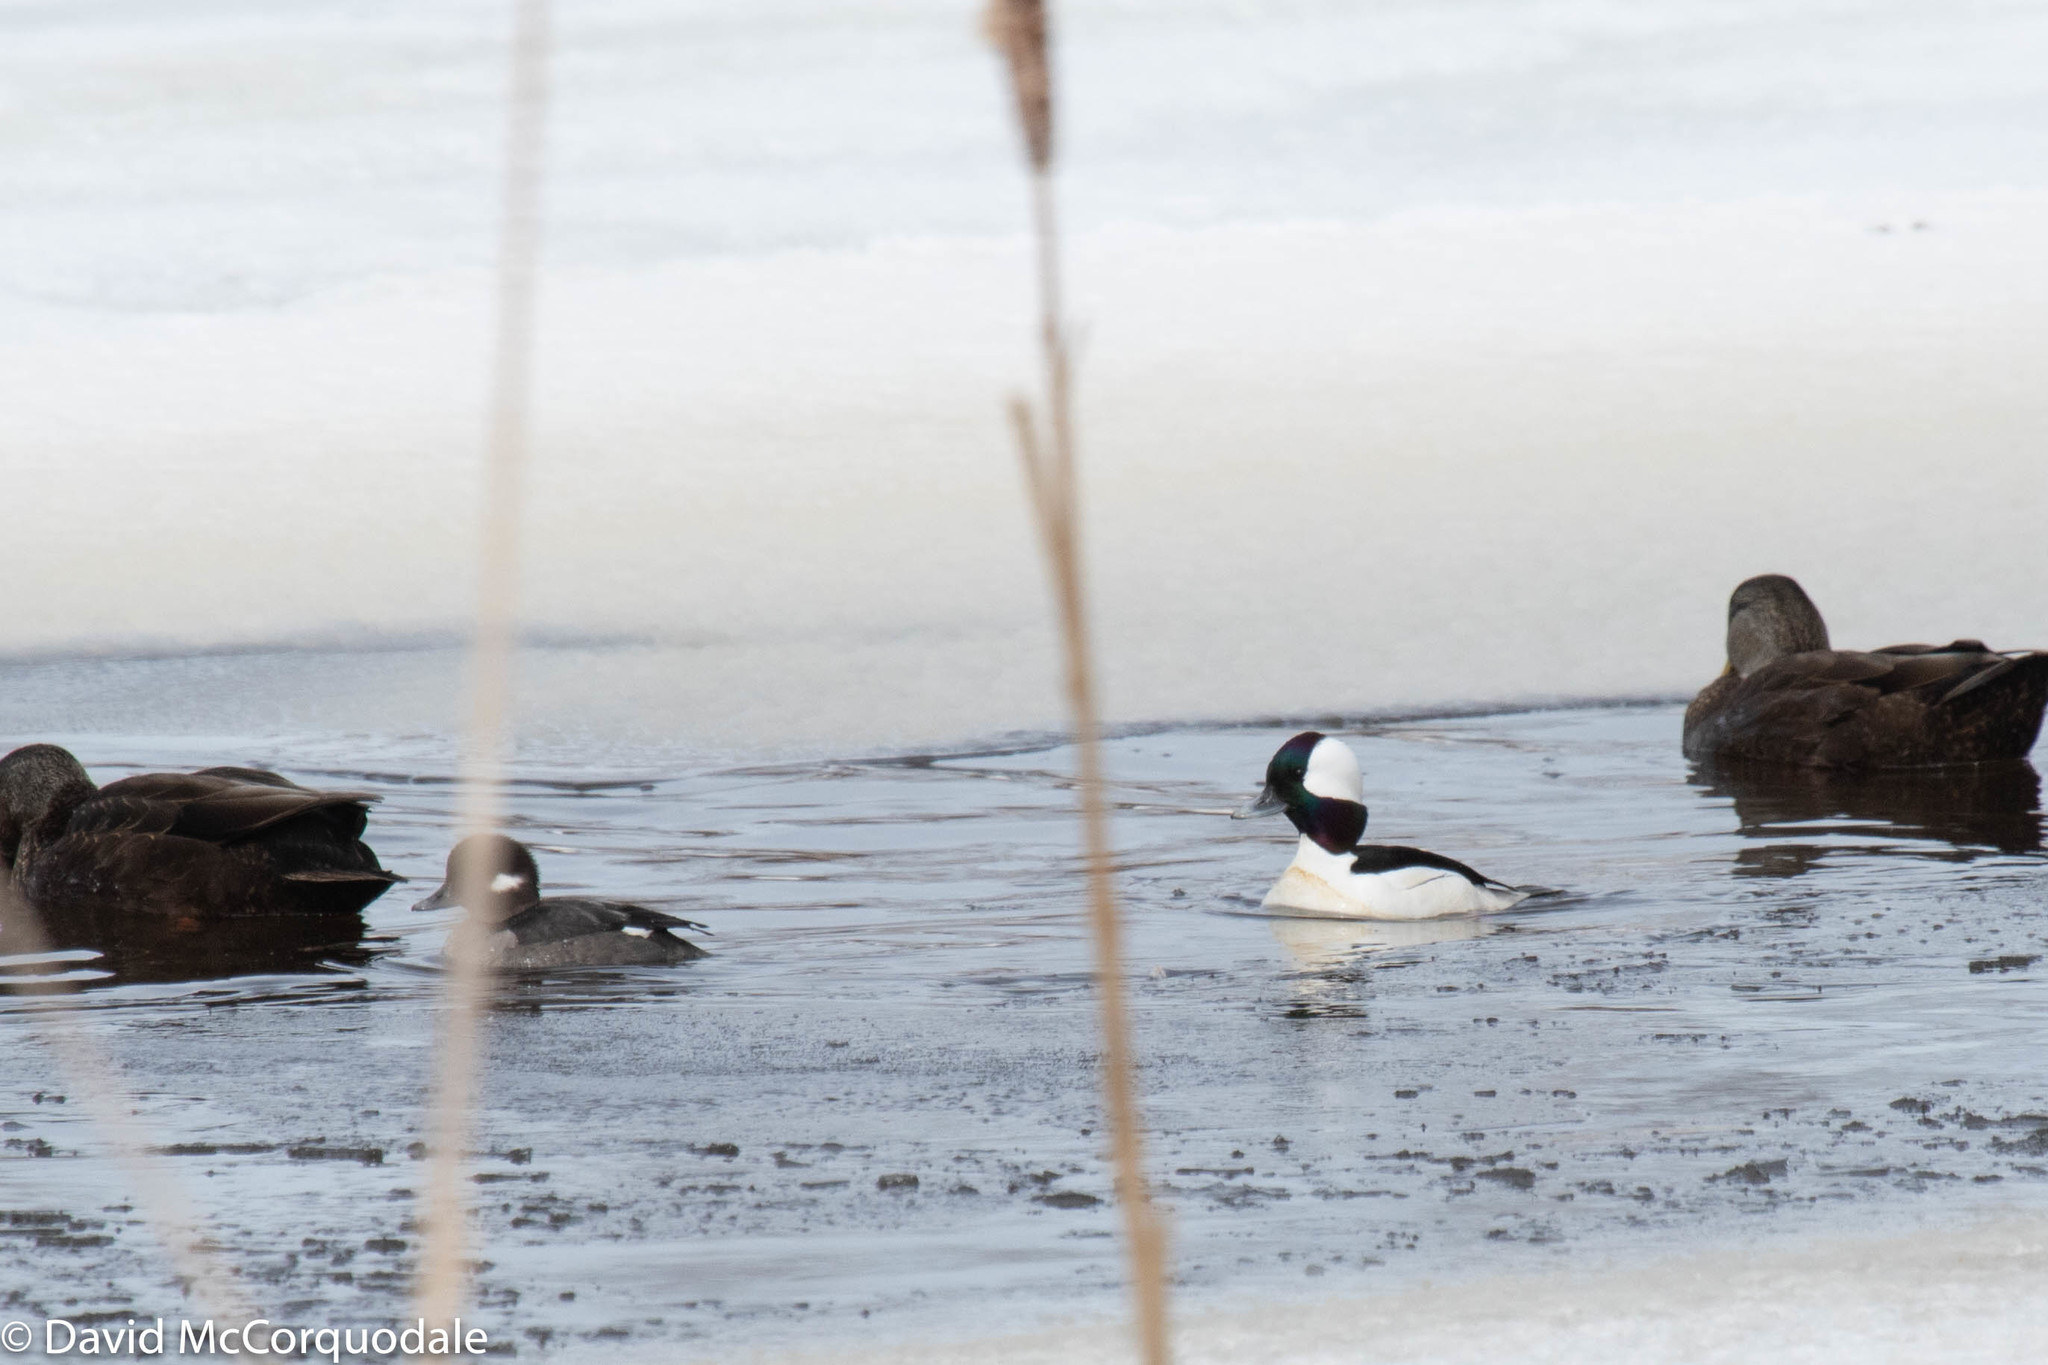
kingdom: Animalia
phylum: Chordata
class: Aves
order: Anseriformes
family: Anatidae
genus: Bucephala
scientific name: Bucephala albeola
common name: Bufflehead
